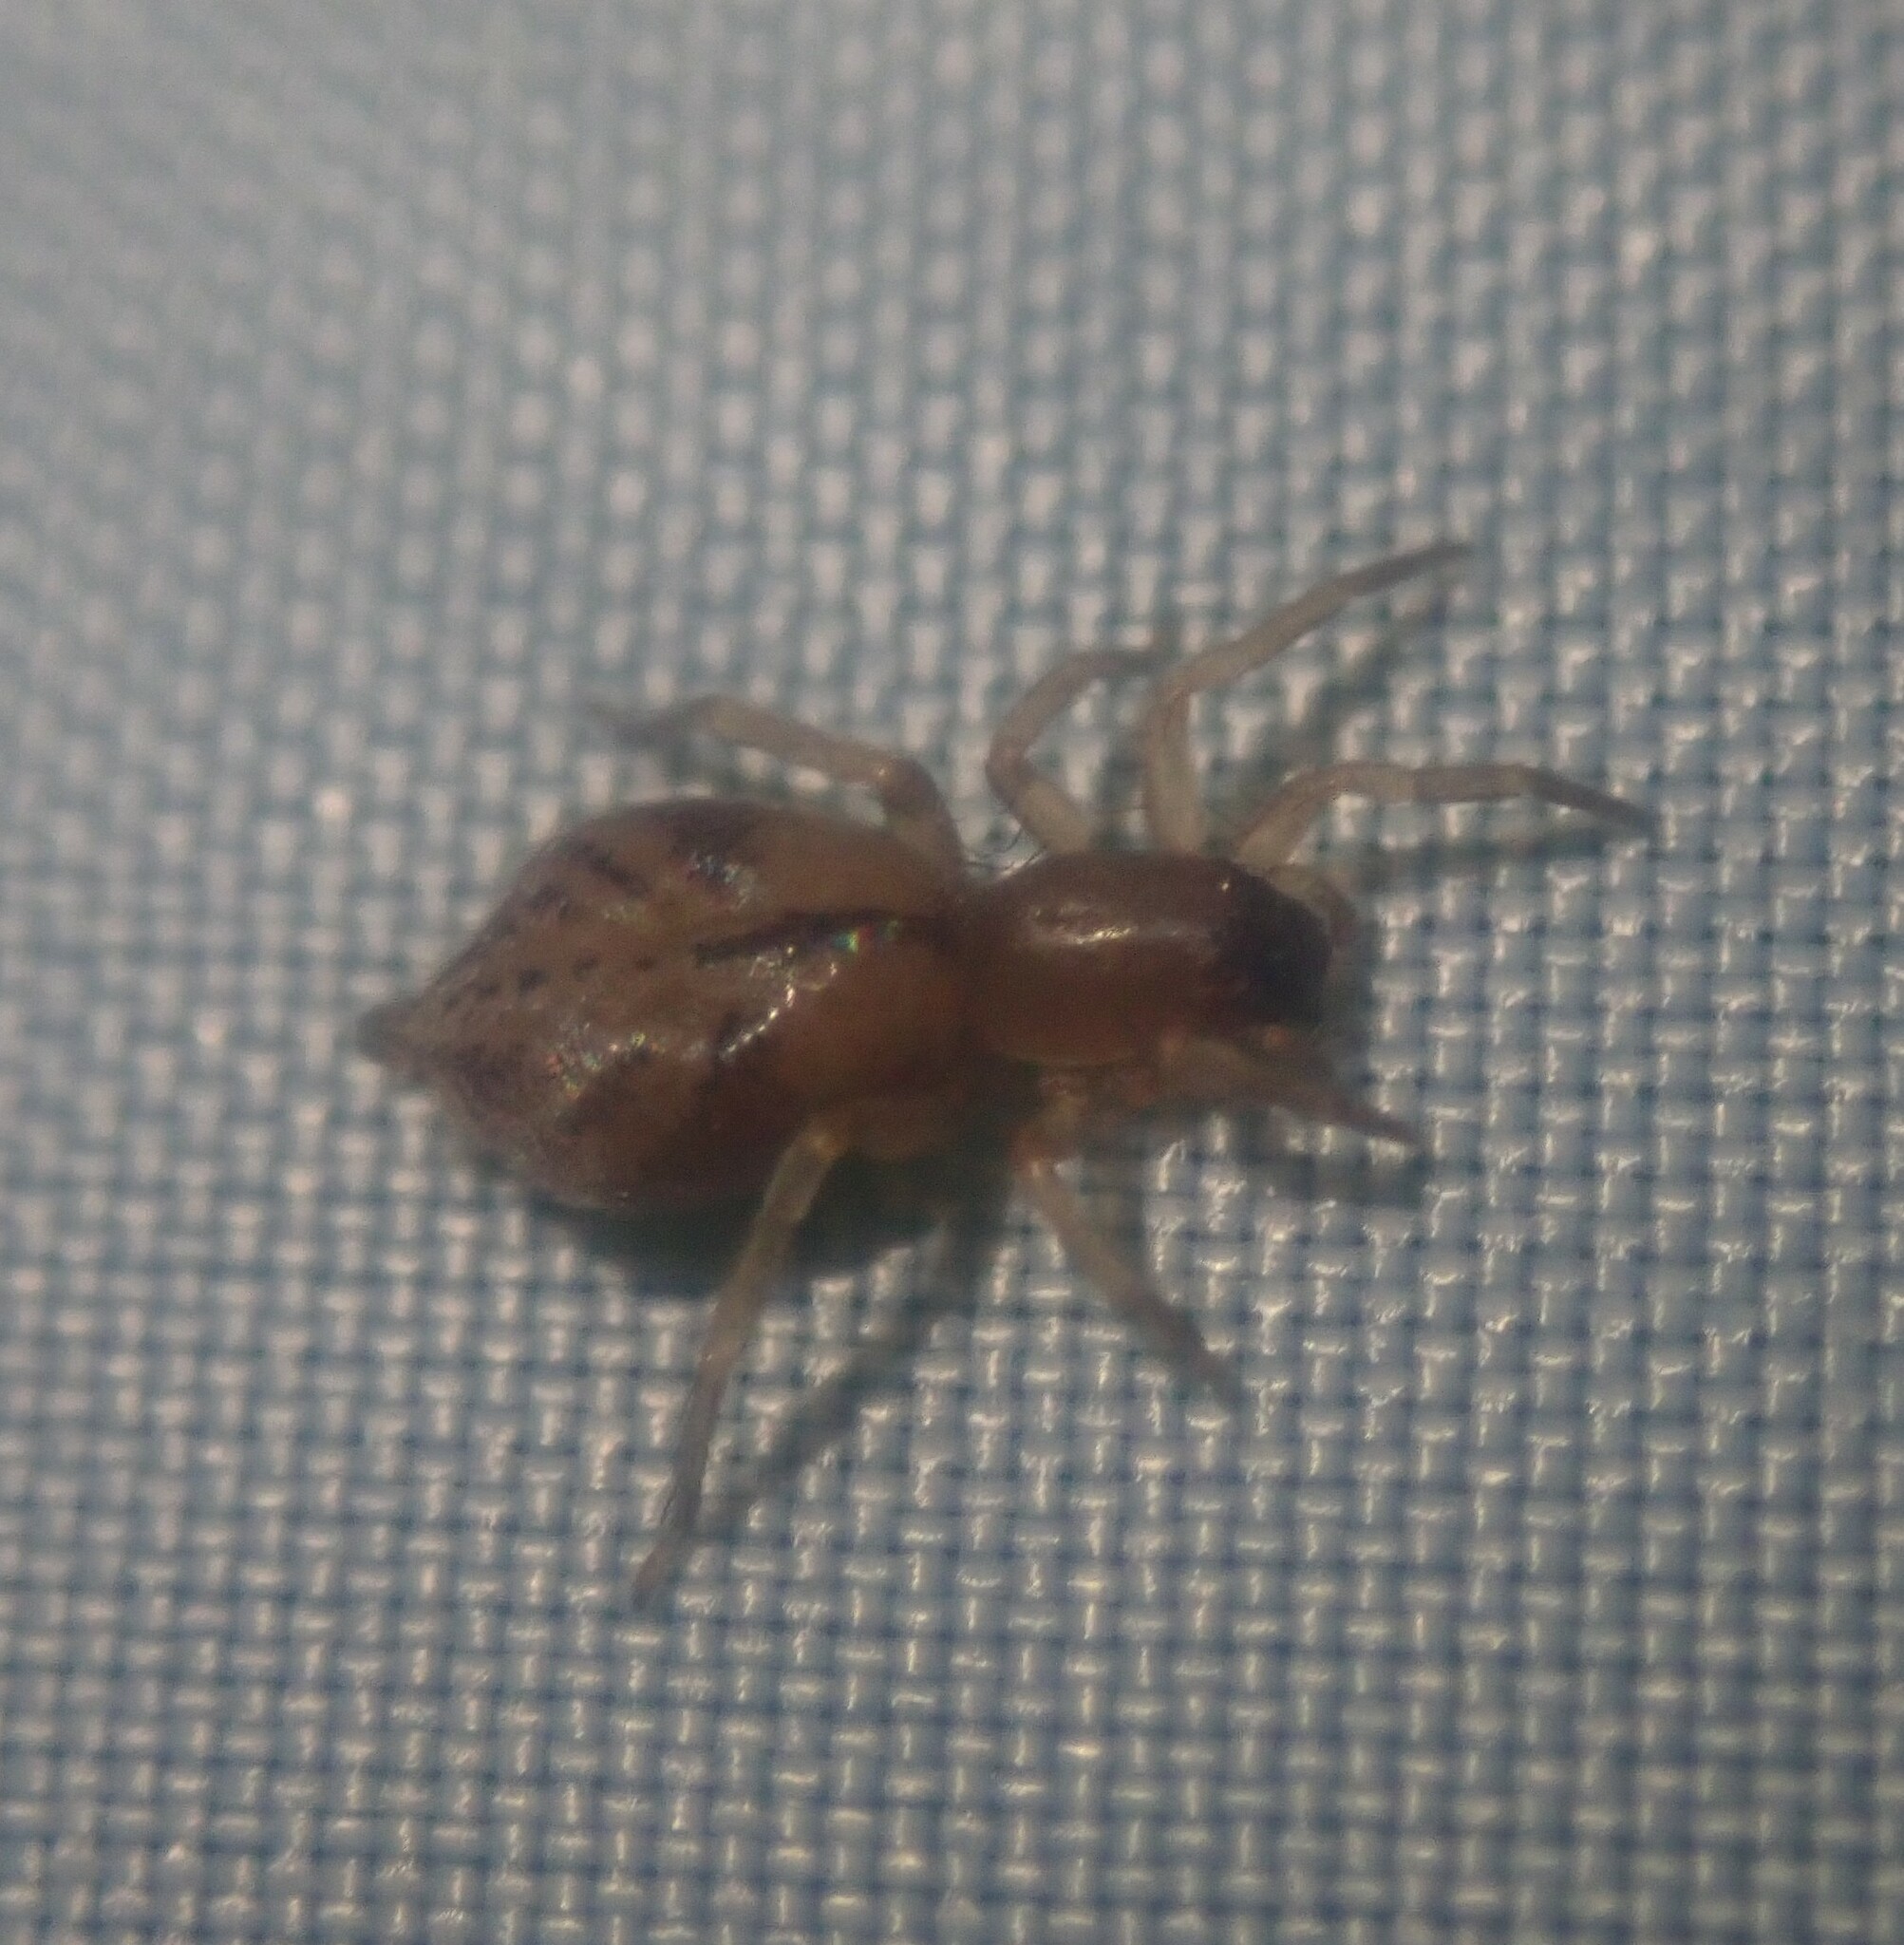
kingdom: Animalia
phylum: Arthropoda
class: Arachnida
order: Araneae
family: Clubionidae
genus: Porrhoclubiona
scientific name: Porrhoclubiona decora
